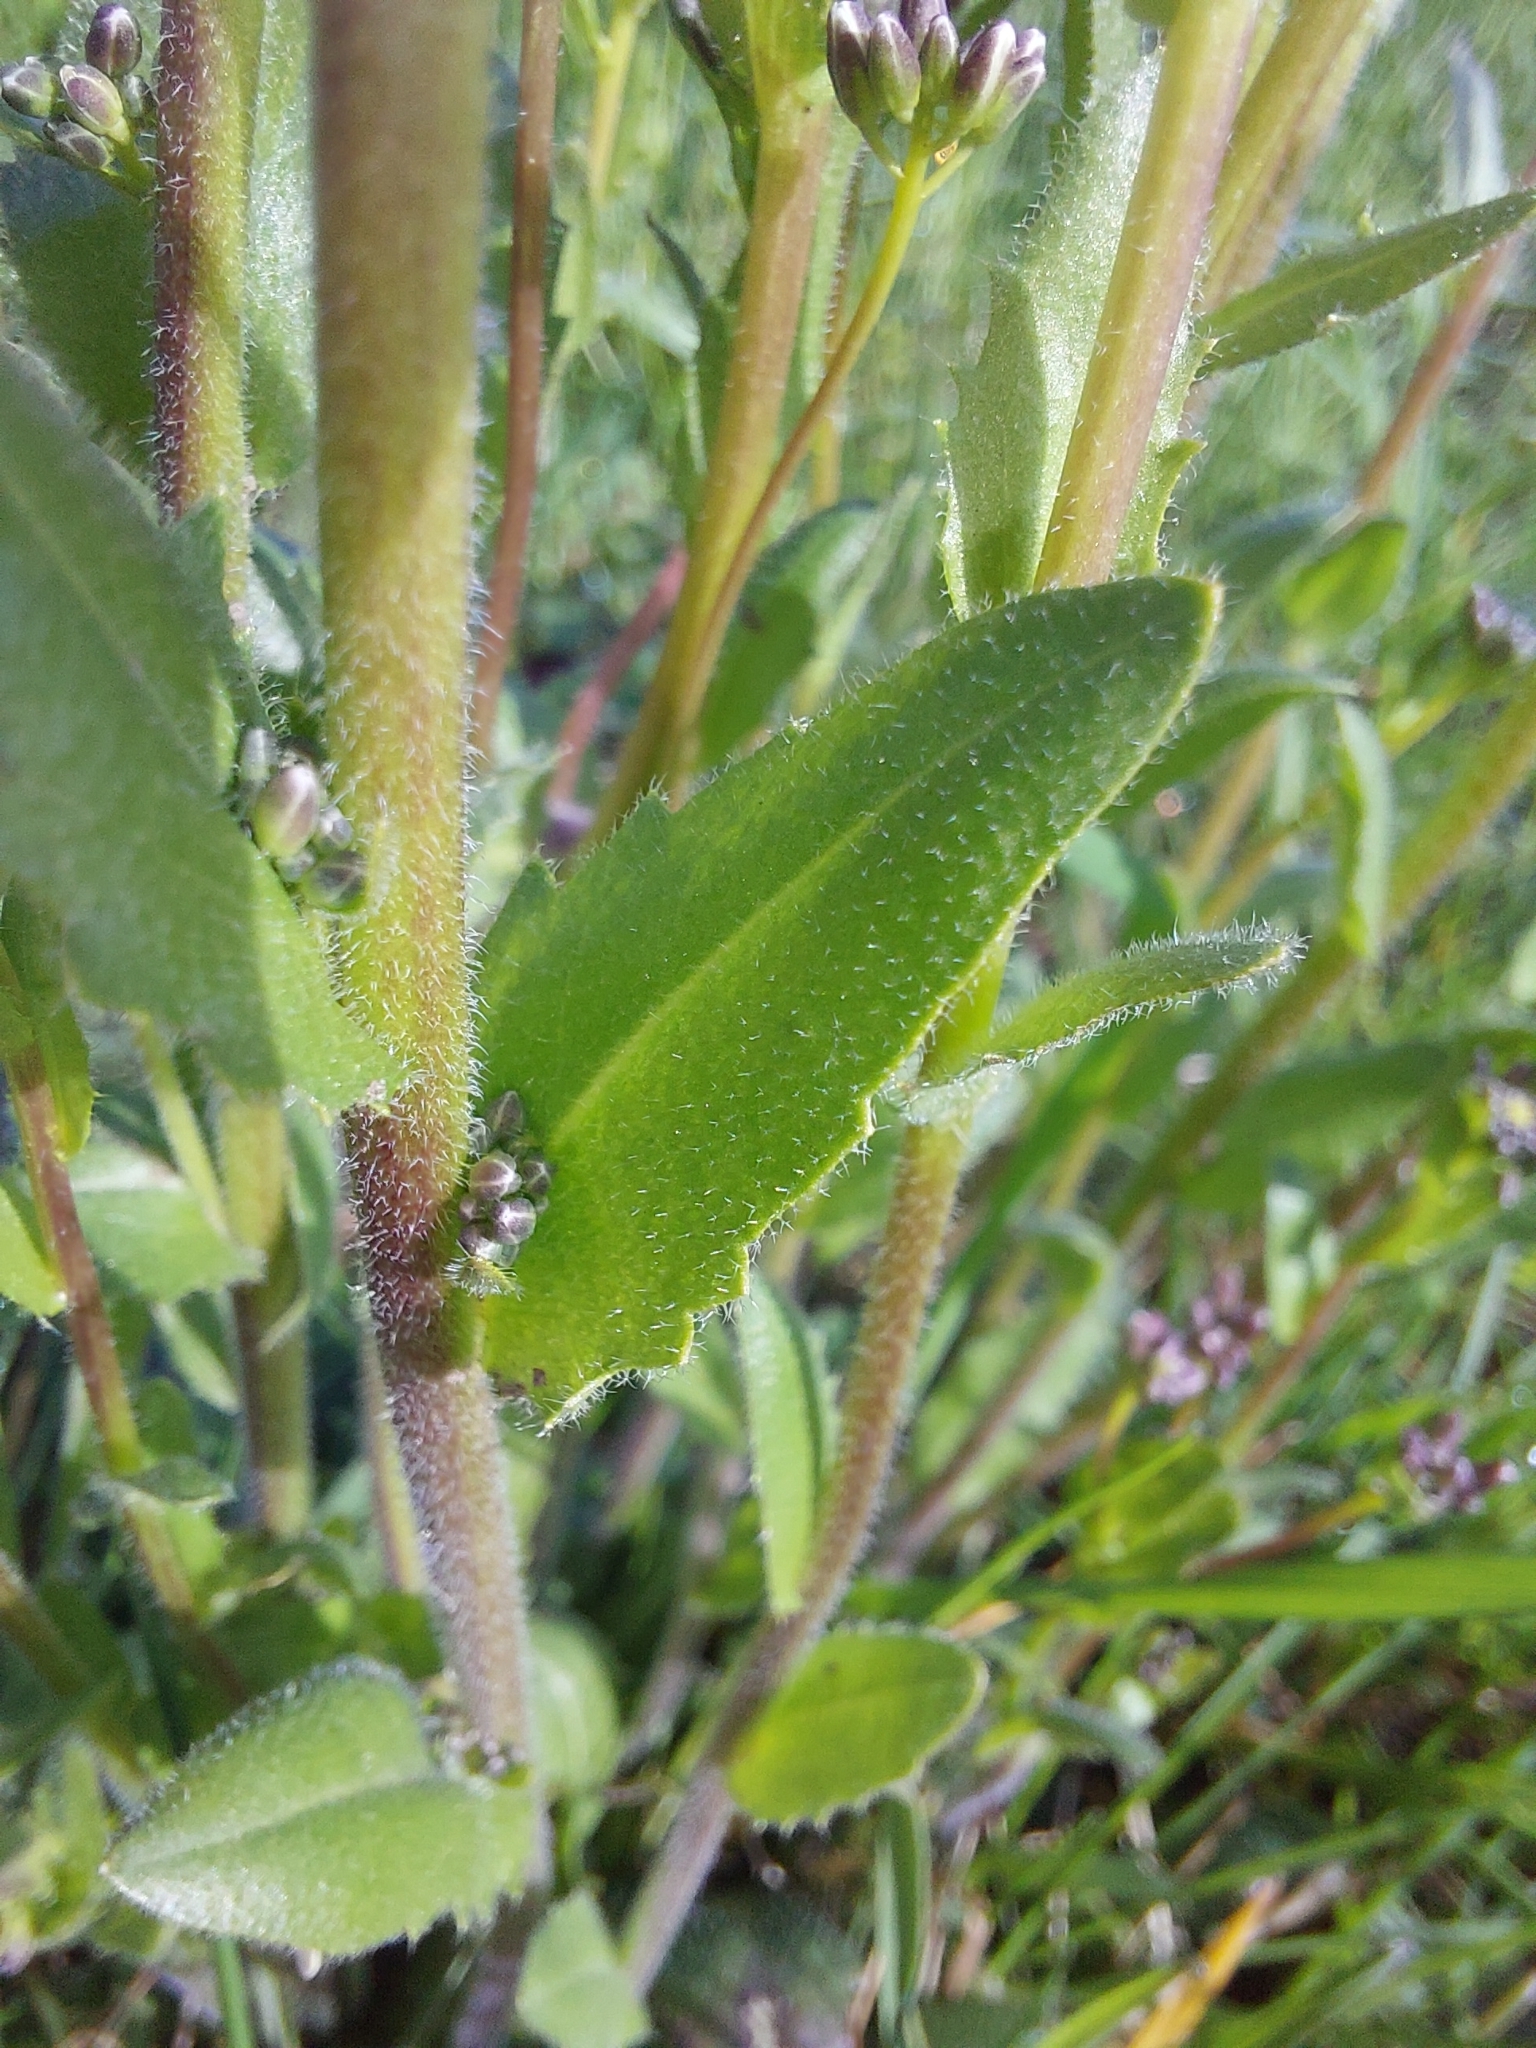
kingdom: Plantae
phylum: Tracheophyta
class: Magnoliopsida
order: Brassicales
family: Brassicaceae
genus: Arabis
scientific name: Arabis hirsuta
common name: Hairy rock-cress
